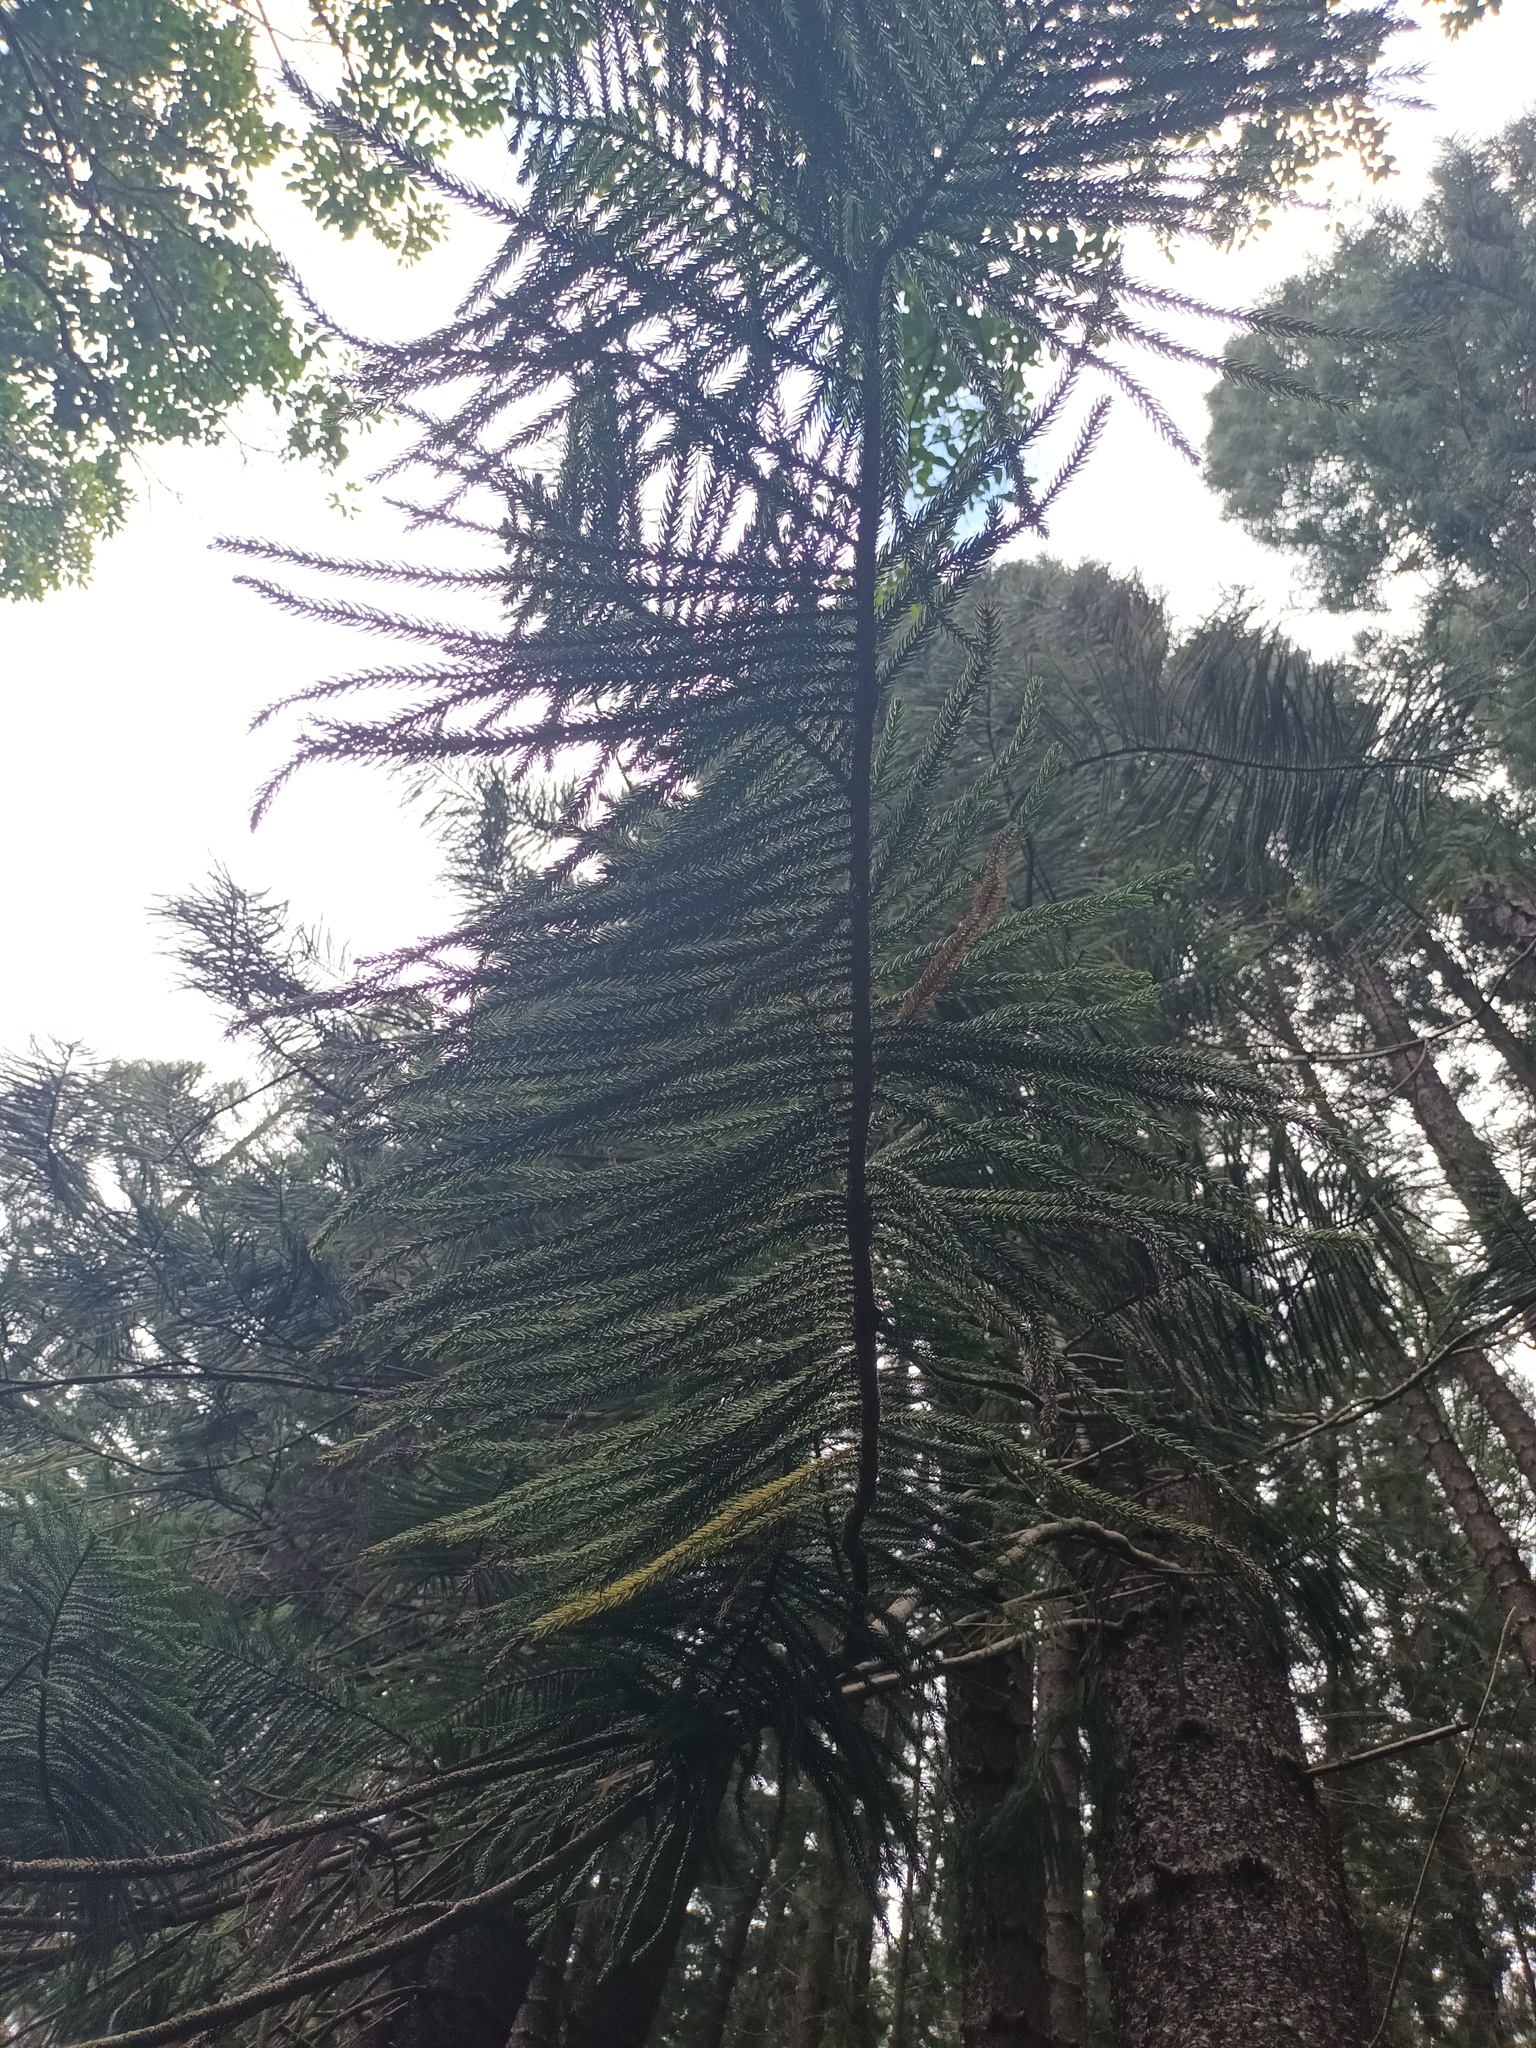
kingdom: Plantae
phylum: Tracheophyta
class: Pinopsida
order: Pinales
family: Araucariaceae
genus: Araucaria
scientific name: Araucaria columnaris
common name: Coral reef araucaria
